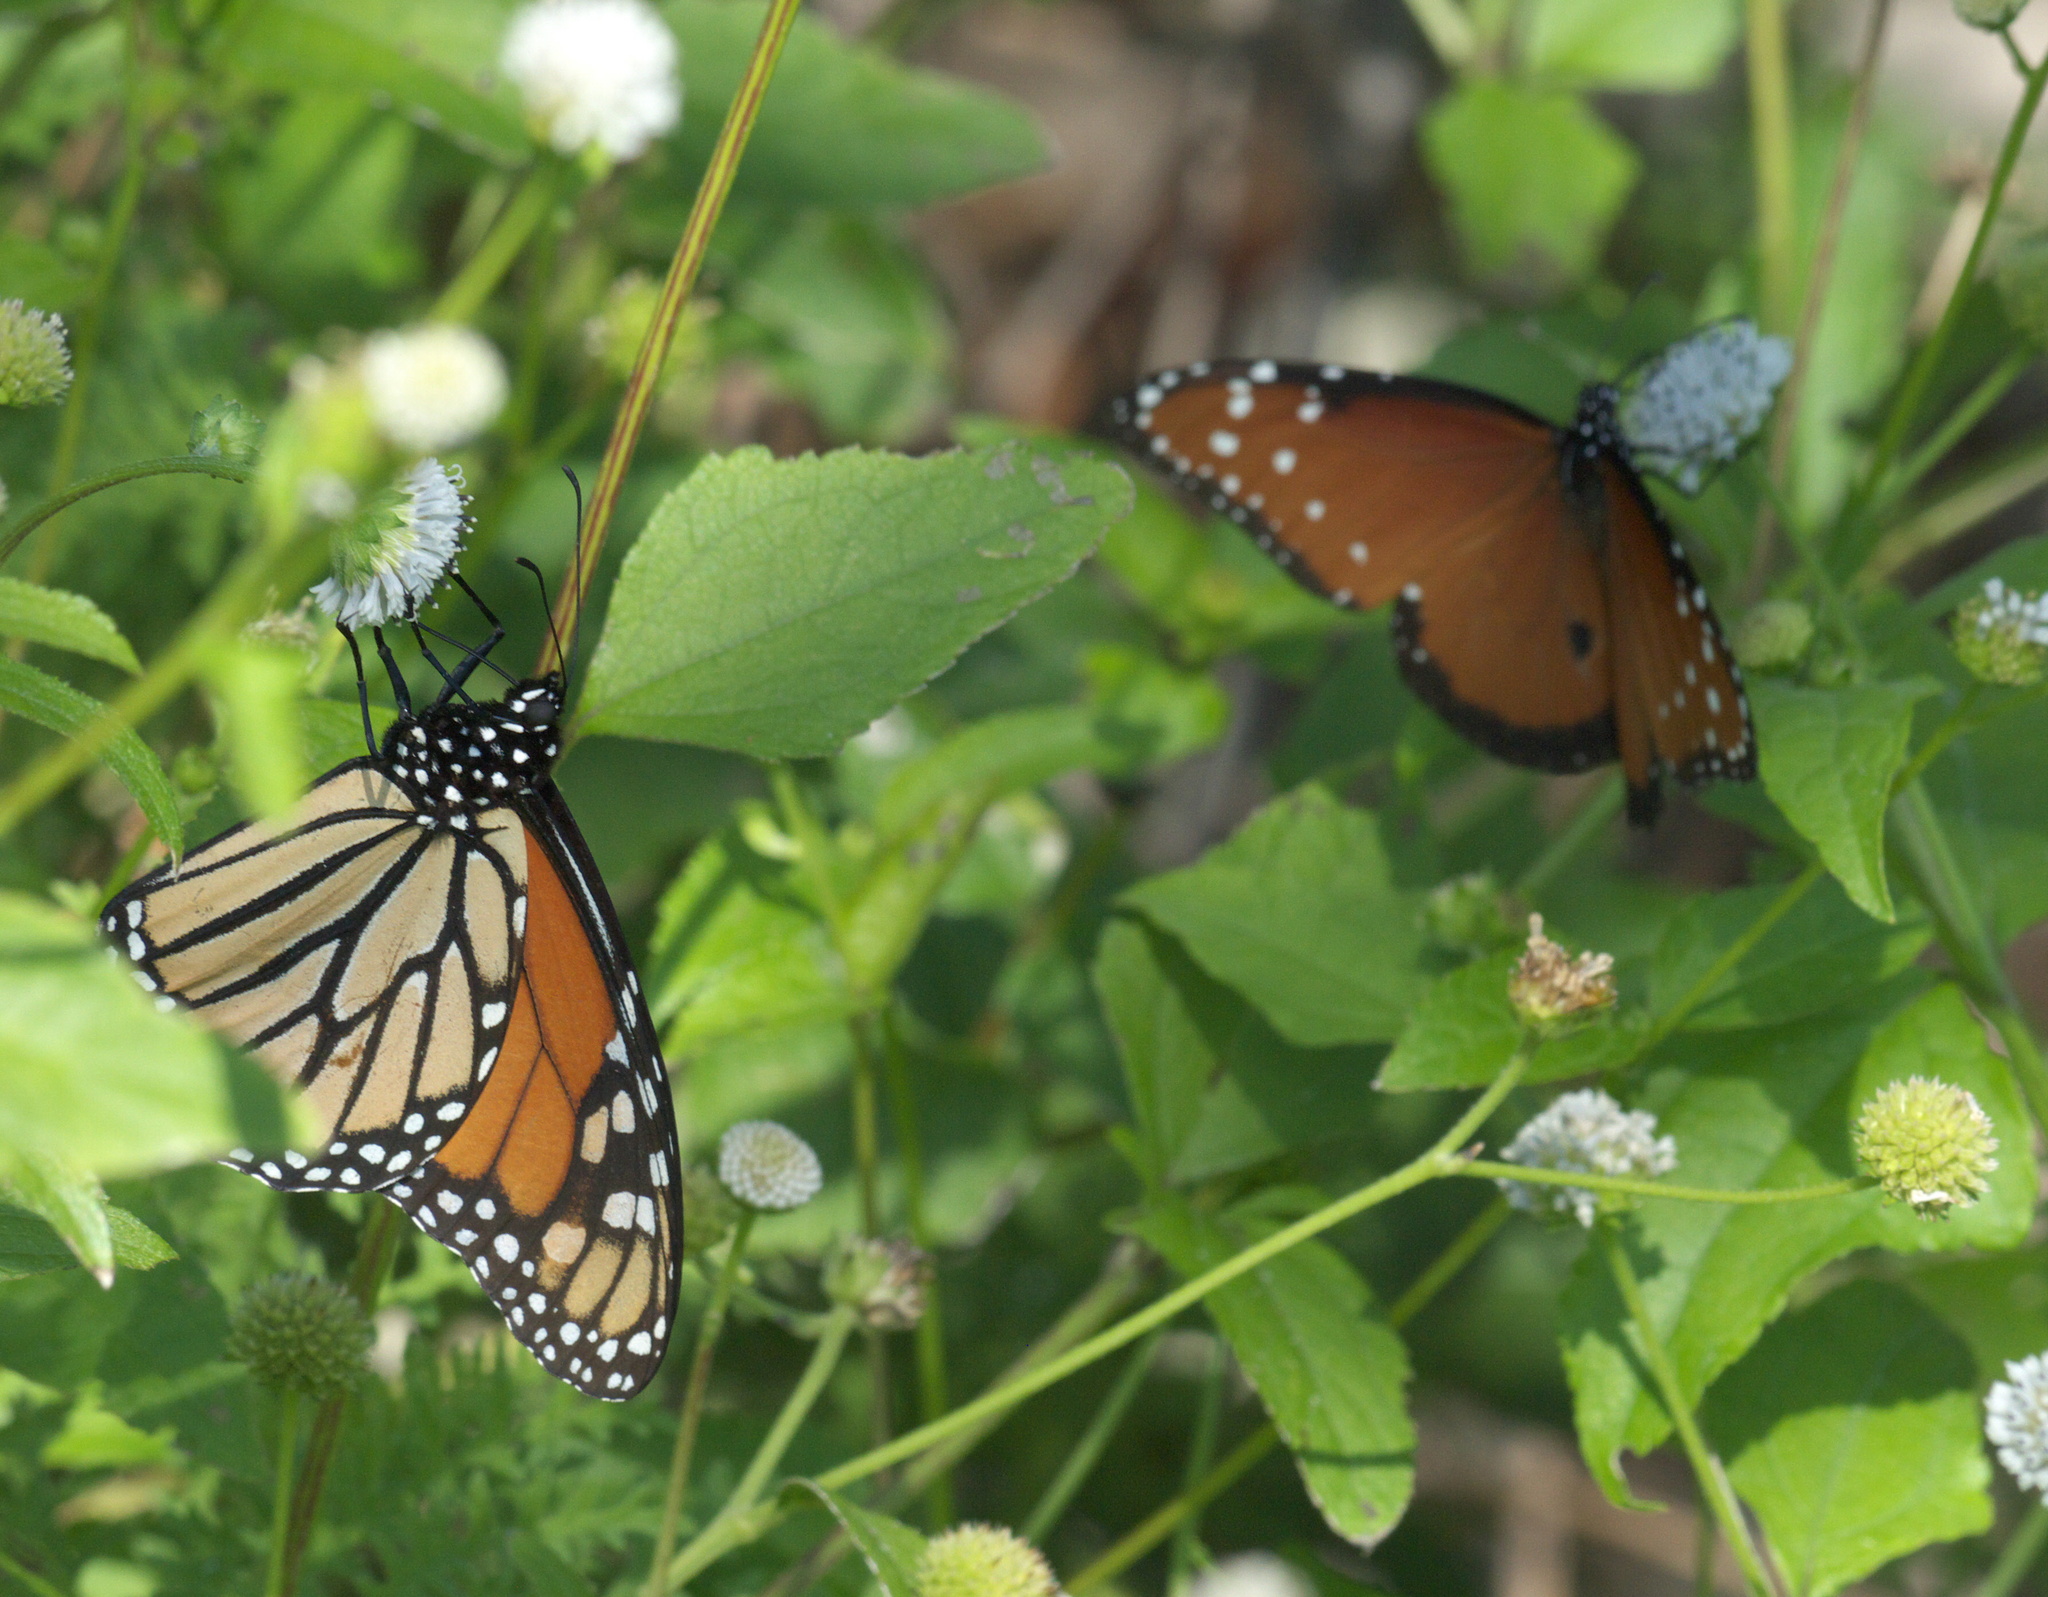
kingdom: Animalia
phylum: Arthropoda
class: Insecta
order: Lepidoptera
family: Nymphalidae
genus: Danaus
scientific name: Danaus plexippus
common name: Monarch
